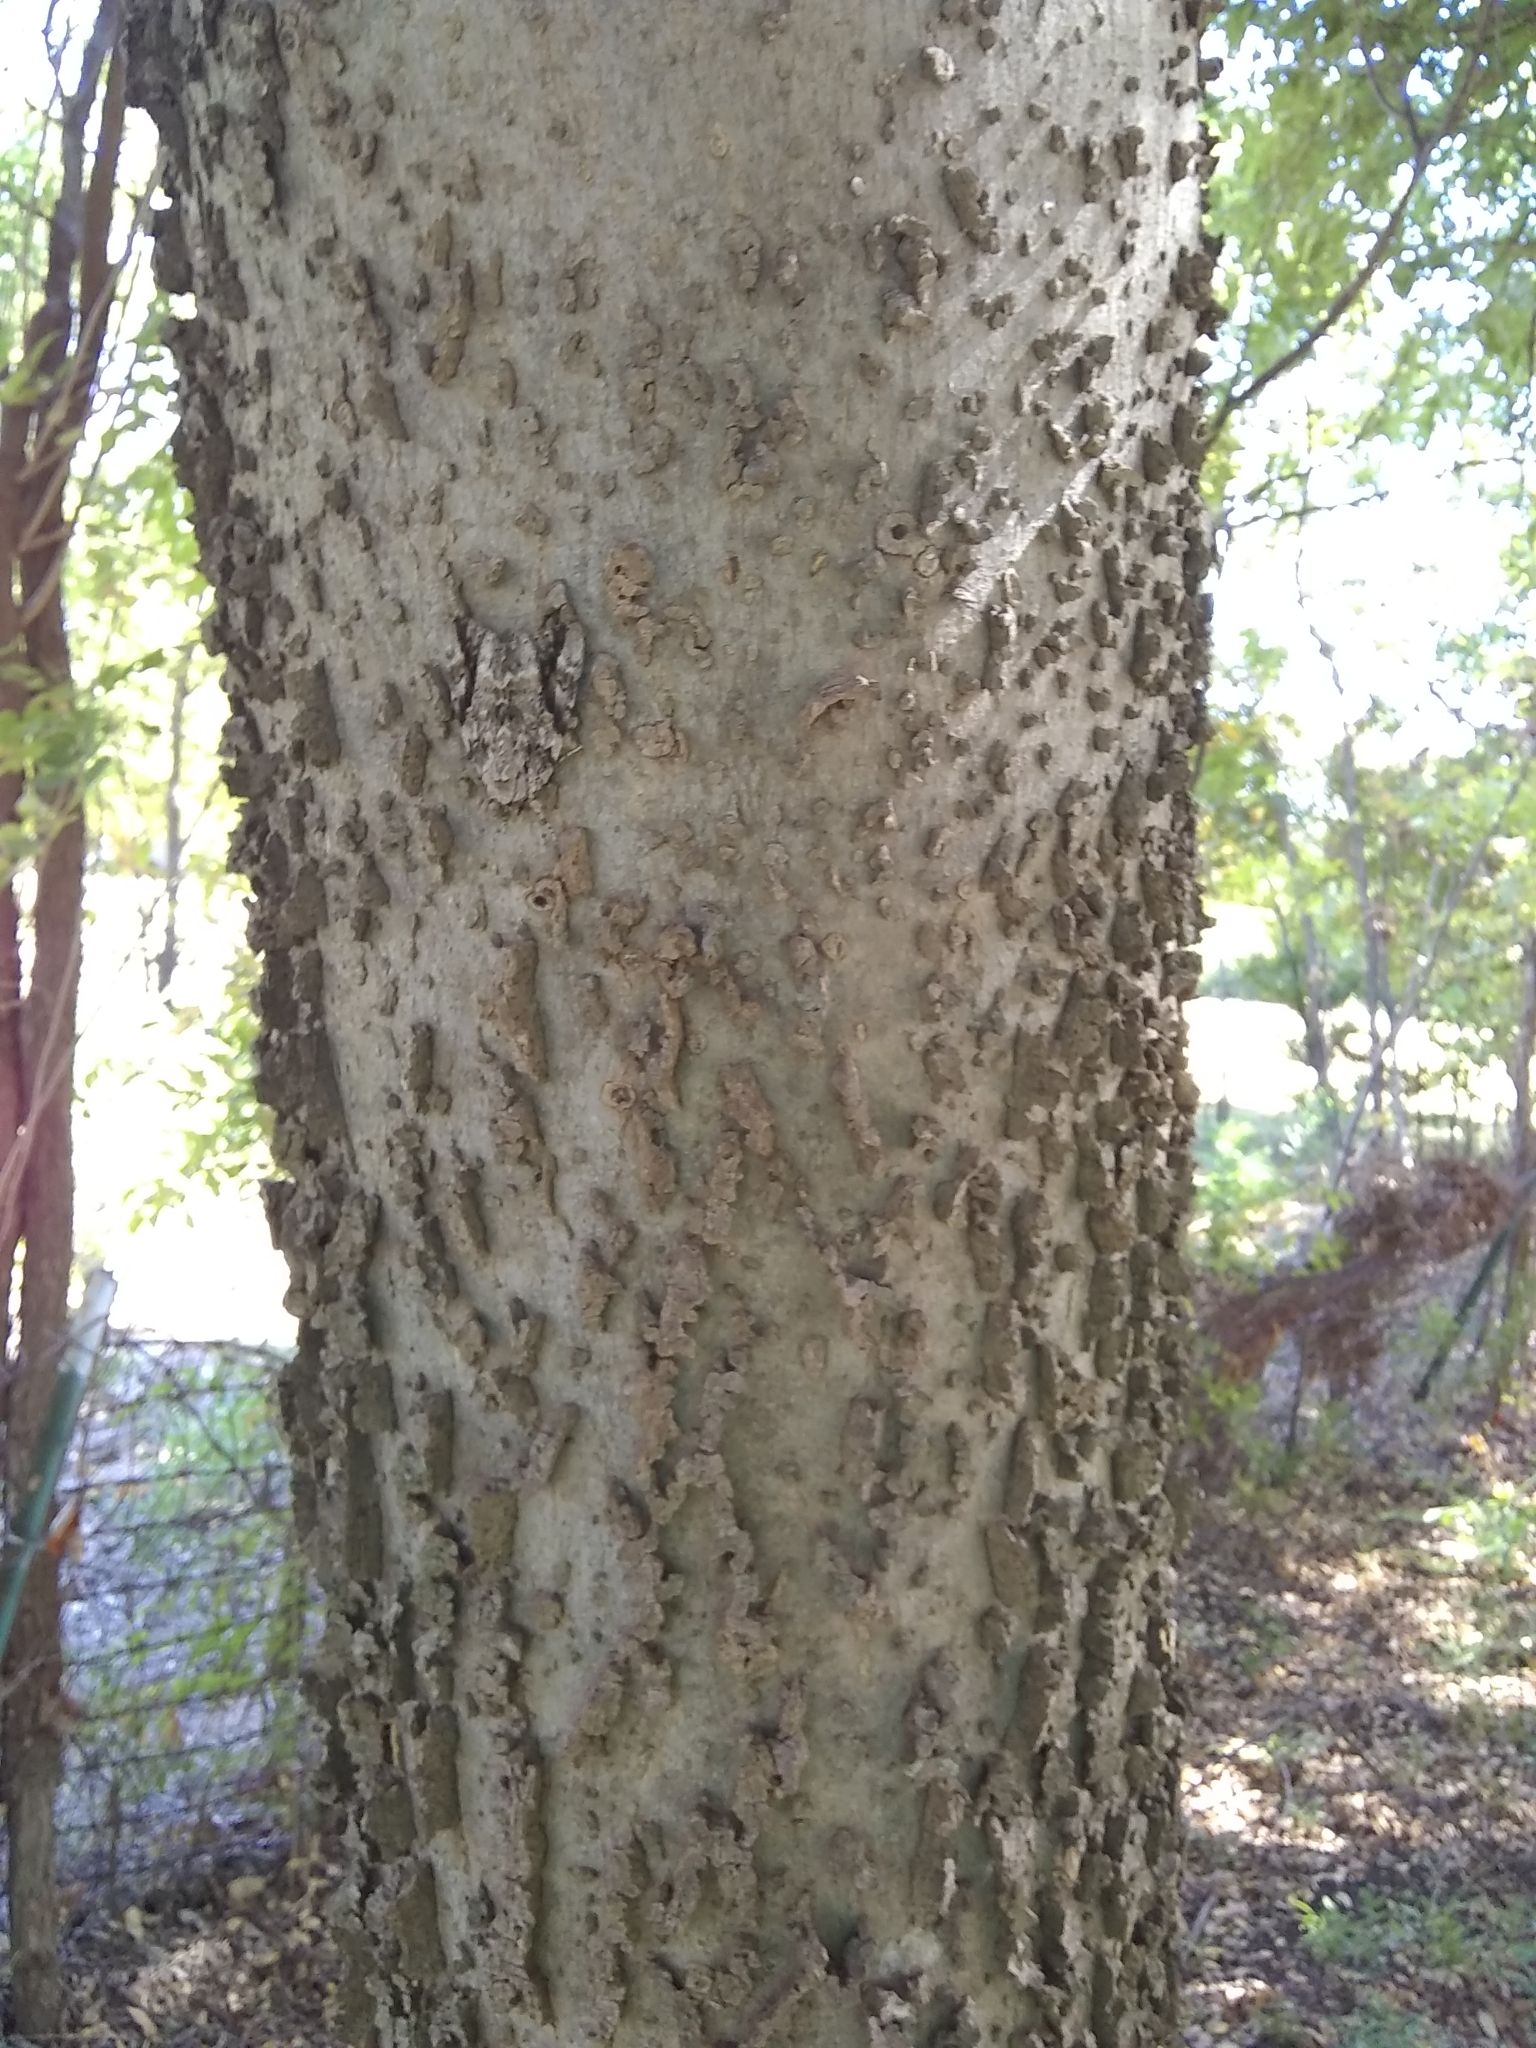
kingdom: Plantae
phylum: Tracheophyta
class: Magnoliopsida
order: Rosales
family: Cannabaceae
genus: Celtis
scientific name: Celtis laevigata
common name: Sugarberry
